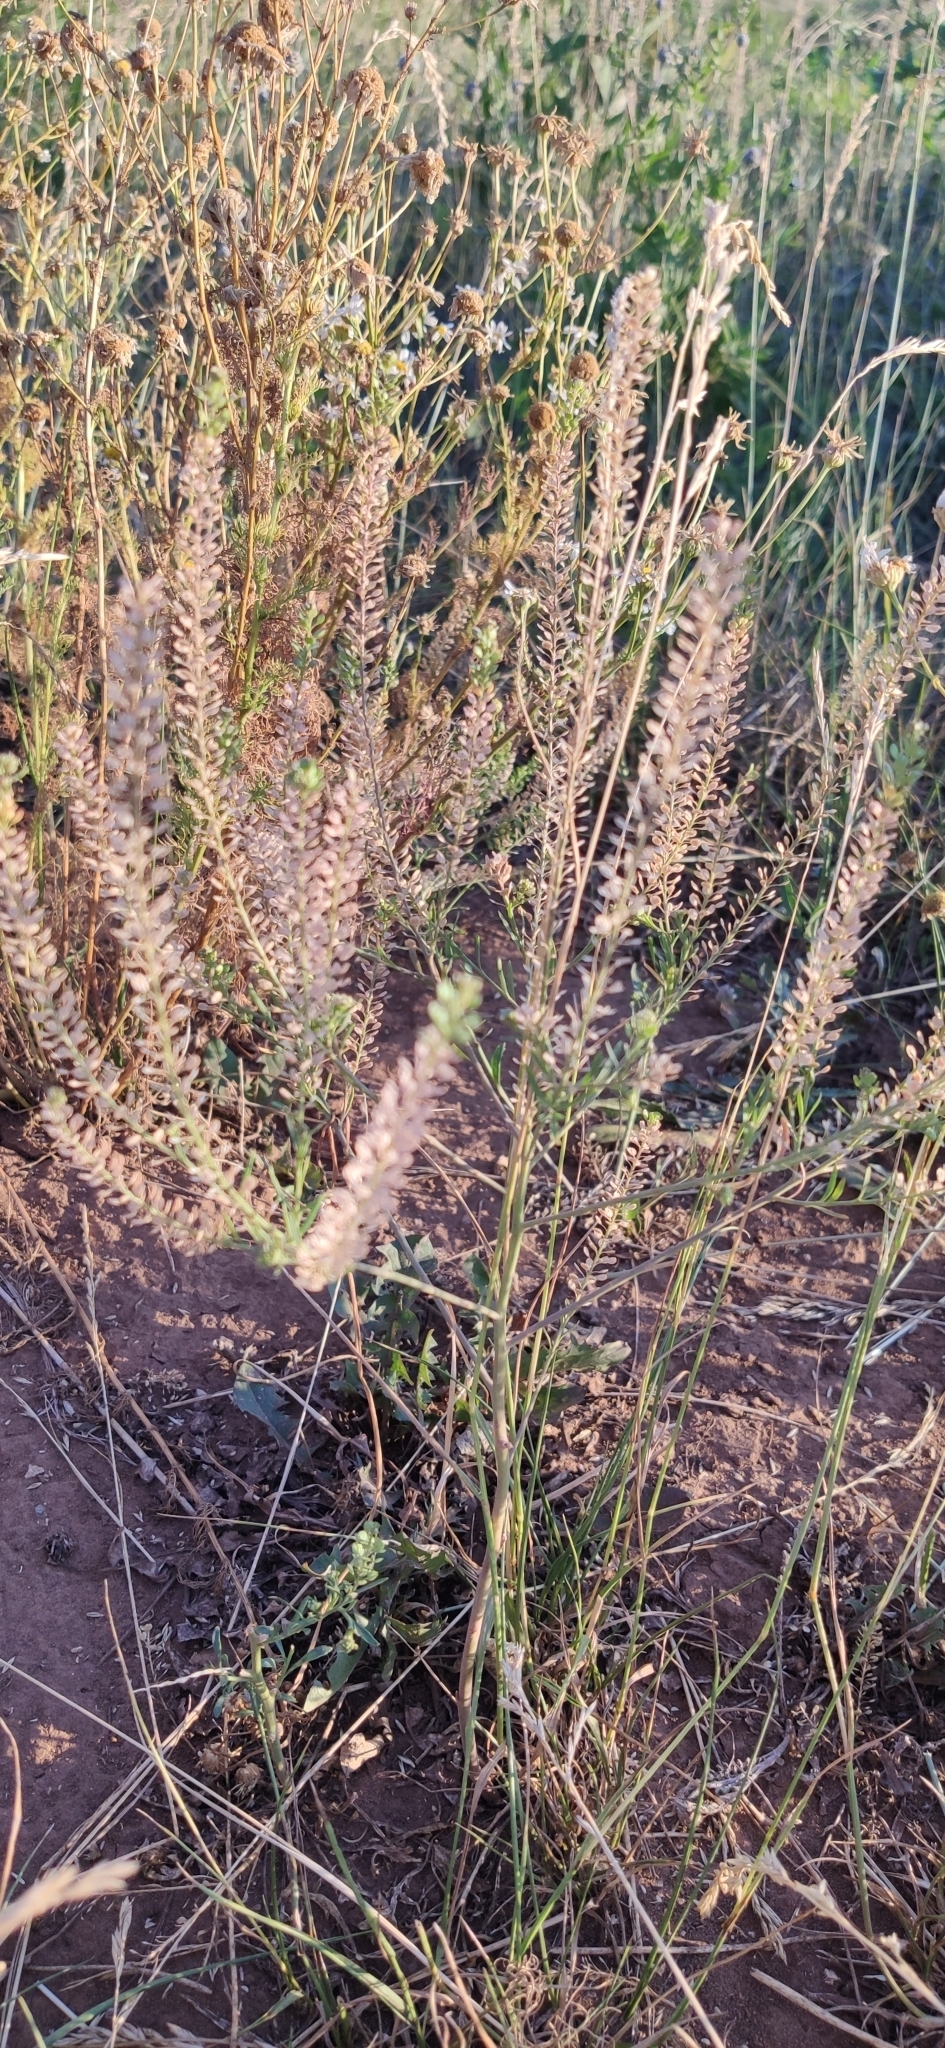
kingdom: Plantae
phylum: Tracheophyta
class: Magnoliopsida
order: Brassicales
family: Brassicaceae
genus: Lepidium
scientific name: Lepidium densiflorum
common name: Miner's pepperwort
